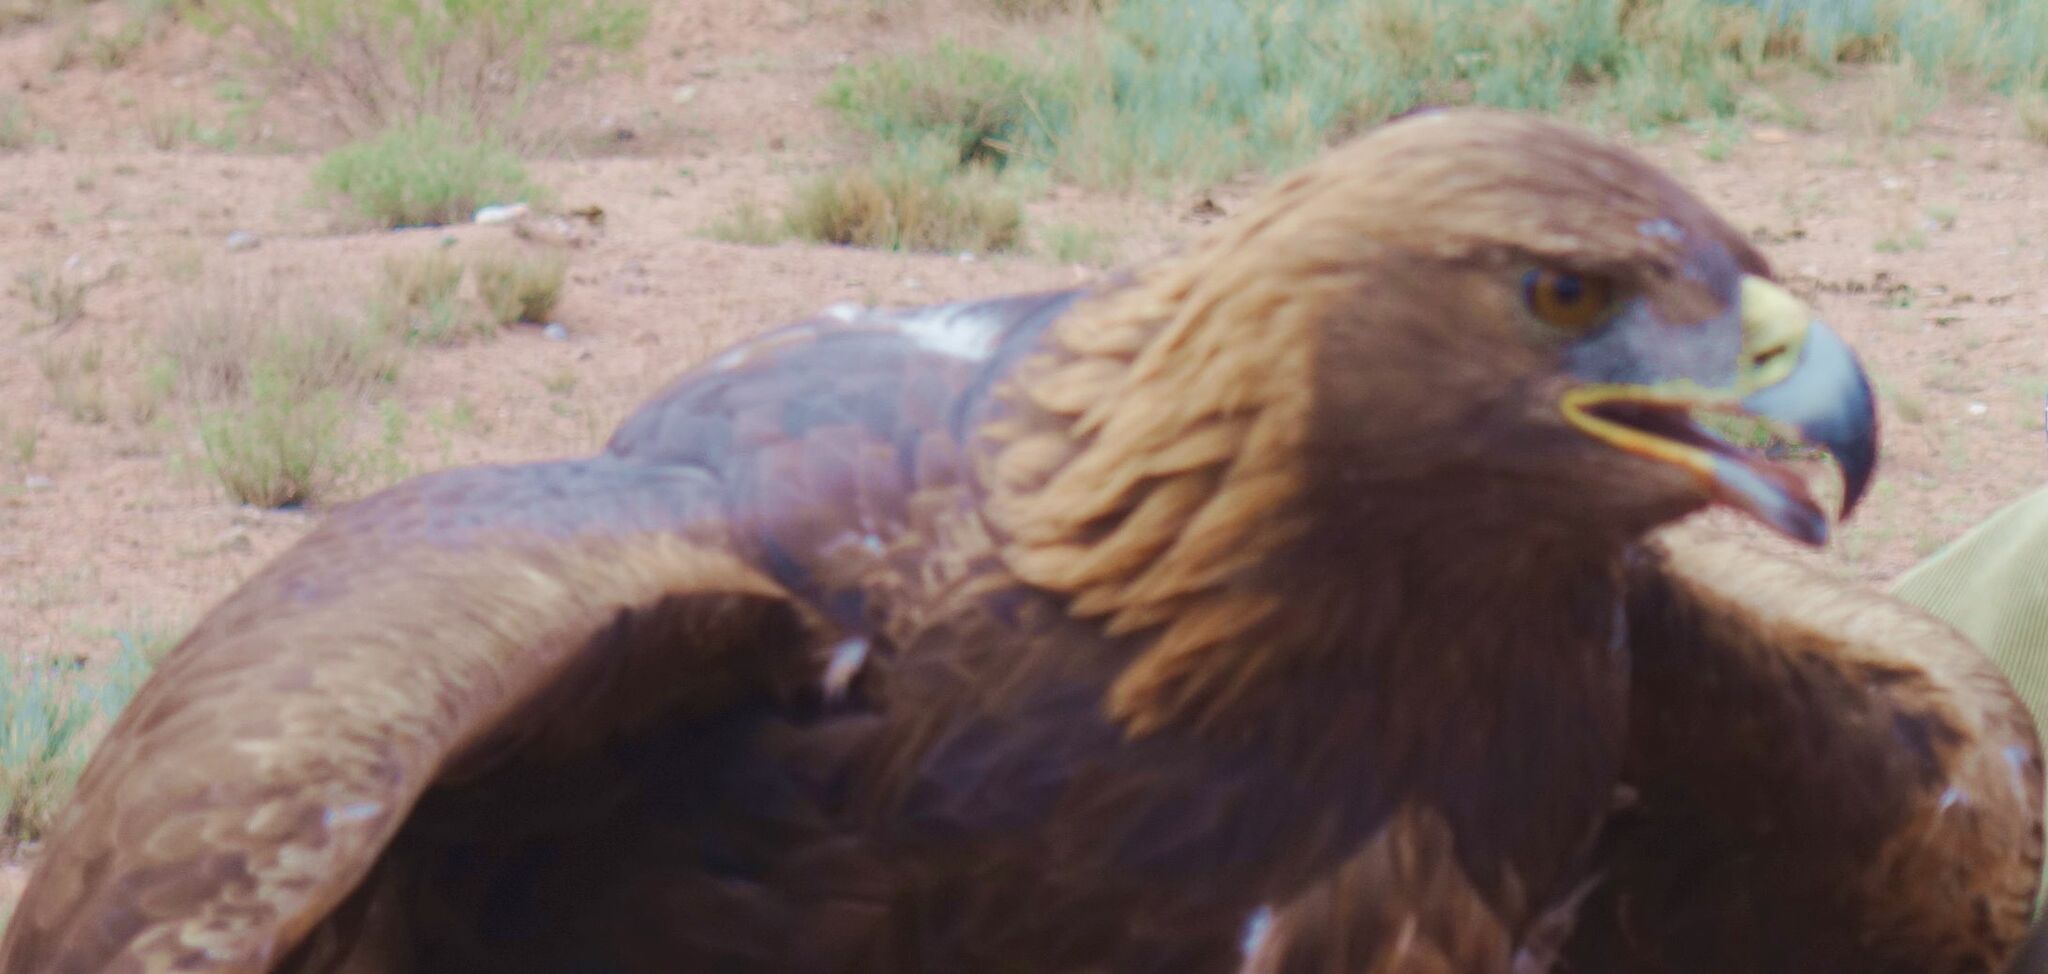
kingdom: Animalia
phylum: Chordata
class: Aves
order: Accipitriformes
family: Accipitridae
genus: Aquila
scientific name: Aquila chrysaetos
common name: Golden eagle
